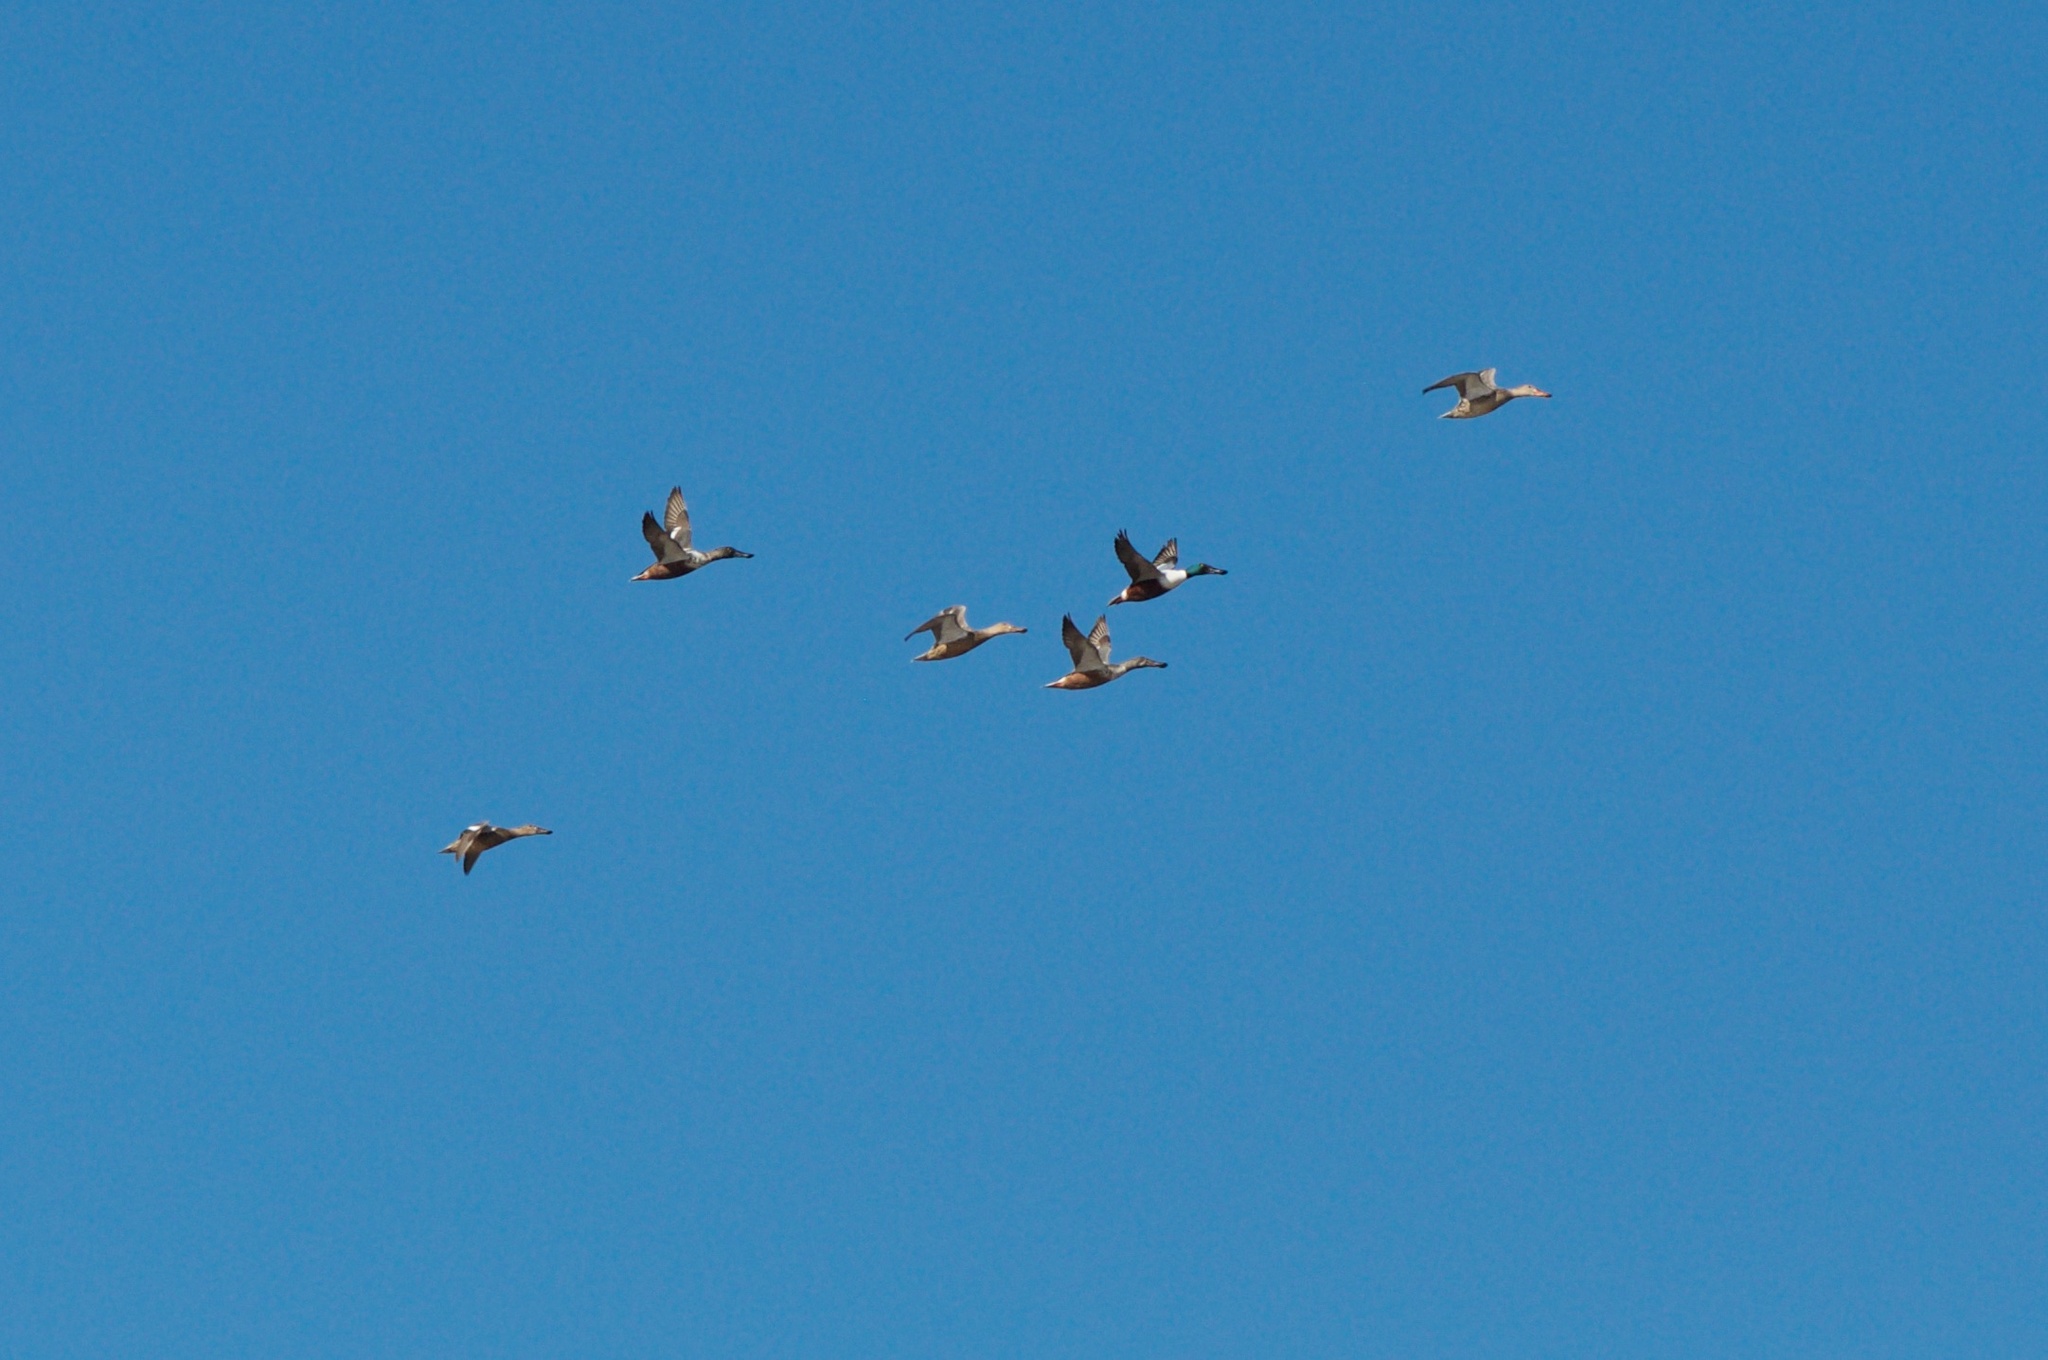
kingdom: Animalia
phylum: Chordata
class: Aves
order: Anseriformes
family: Anatidae
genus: Spatula
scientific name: Spatula clypeata
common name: Northern shoveler
